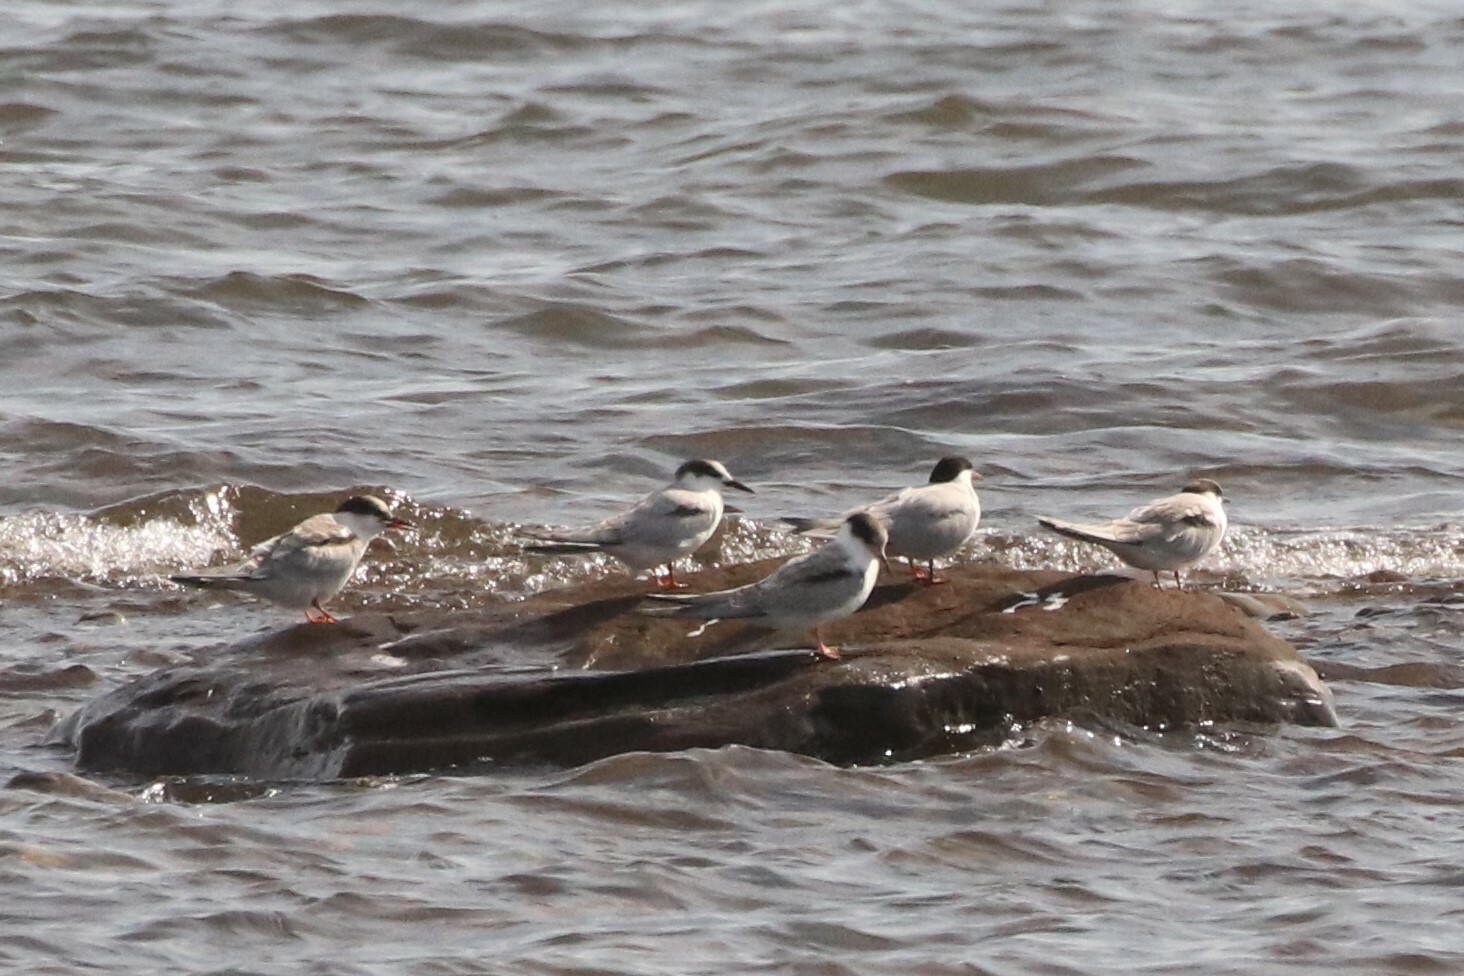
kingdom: Animalia
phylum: Chordata
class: Aves
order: Charadriiformes
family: Laridae
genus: Sterna
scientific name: Sterna hirundo
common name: Common tern
